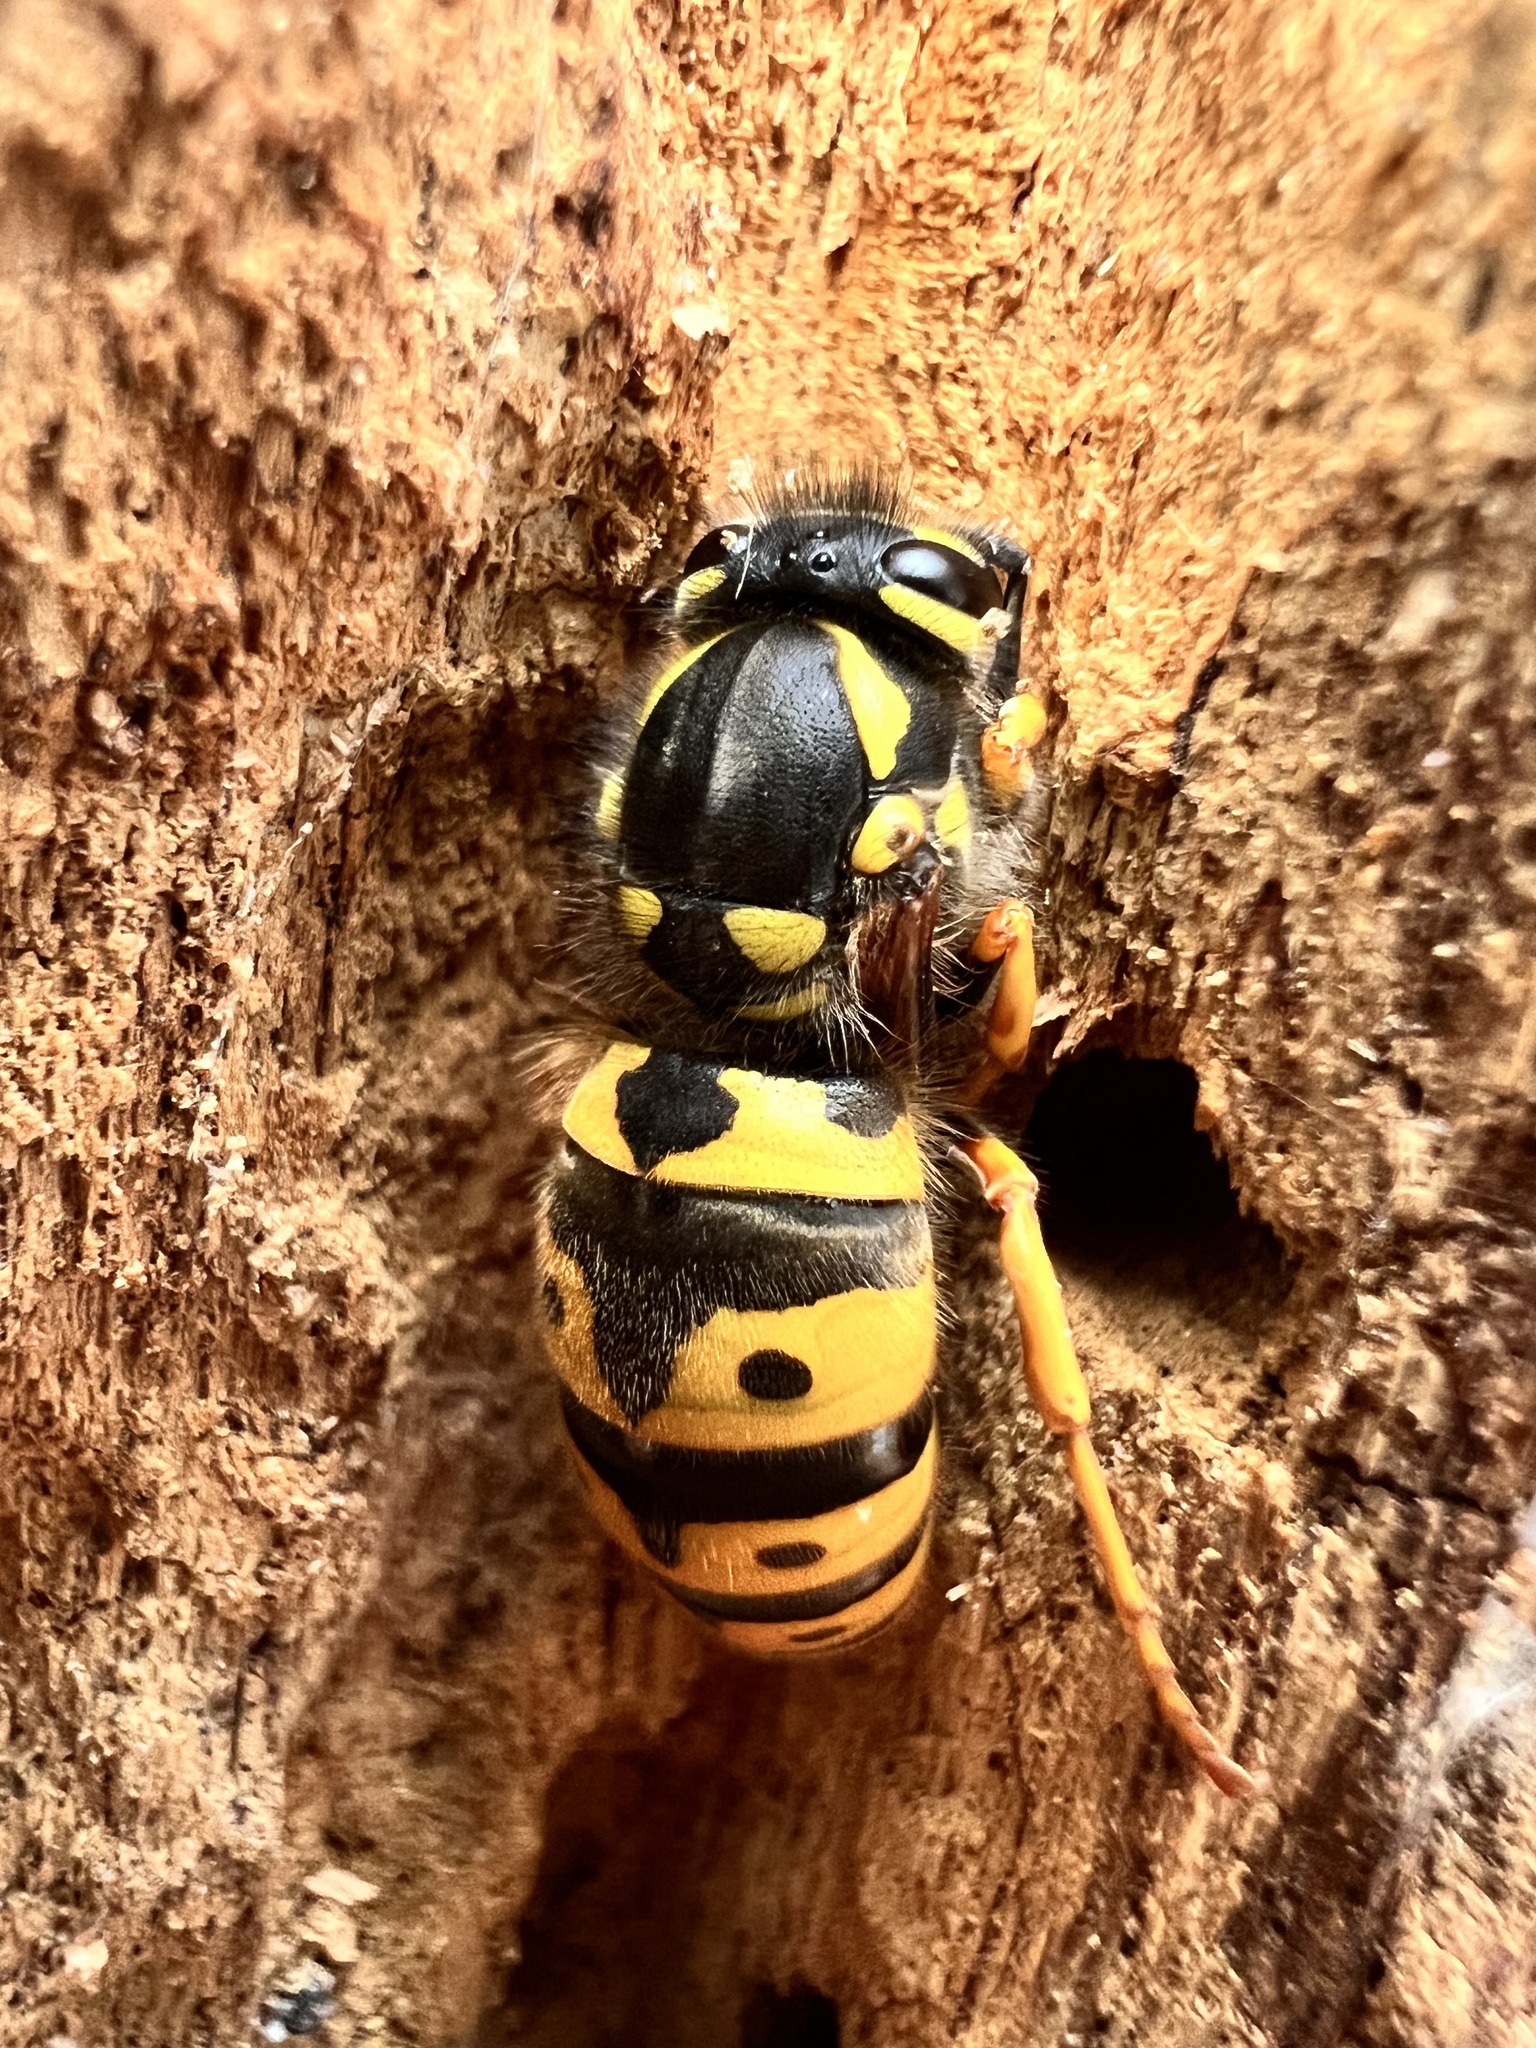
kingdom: Animalia
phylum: Arthropoda
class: Insecta
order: Hymenoptera
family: Vespidae
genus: Vespula
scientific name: Vespula germanica
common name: German wasp
